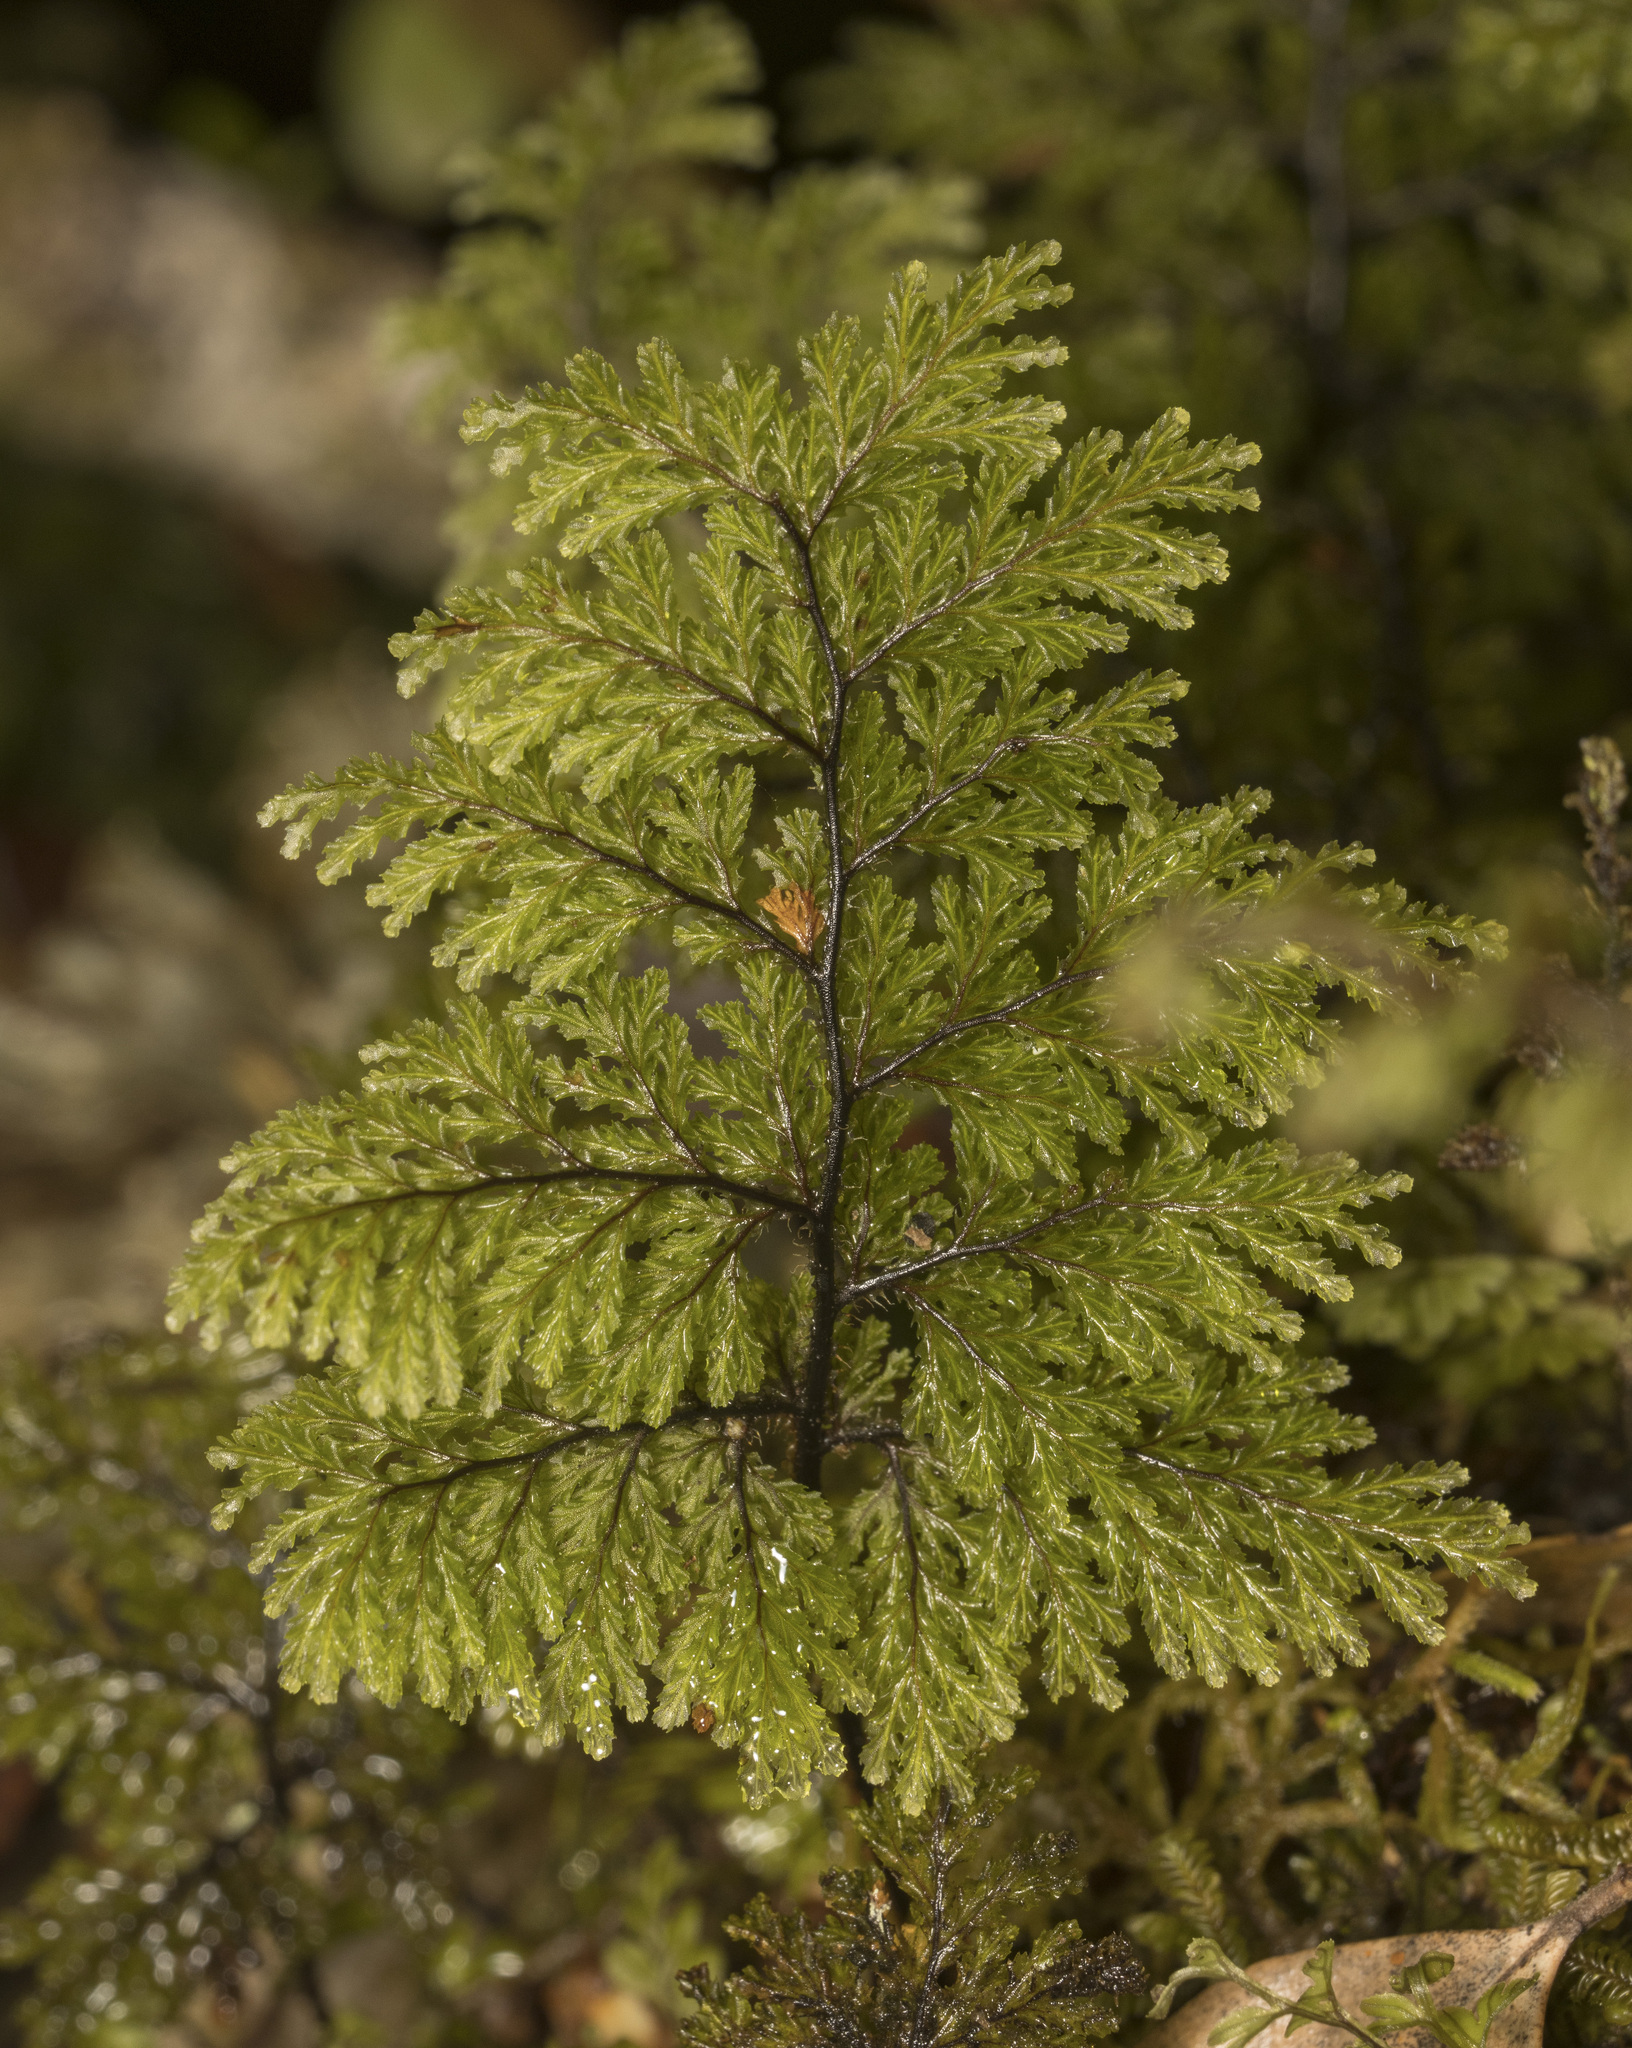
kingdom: Plantae
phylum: Tracheophyta
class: Polypodiopsida
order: Hymenophyllales
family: Hymenophyllaceae
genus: Hymenophyllum
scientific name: Hymenophyllum plicatum
